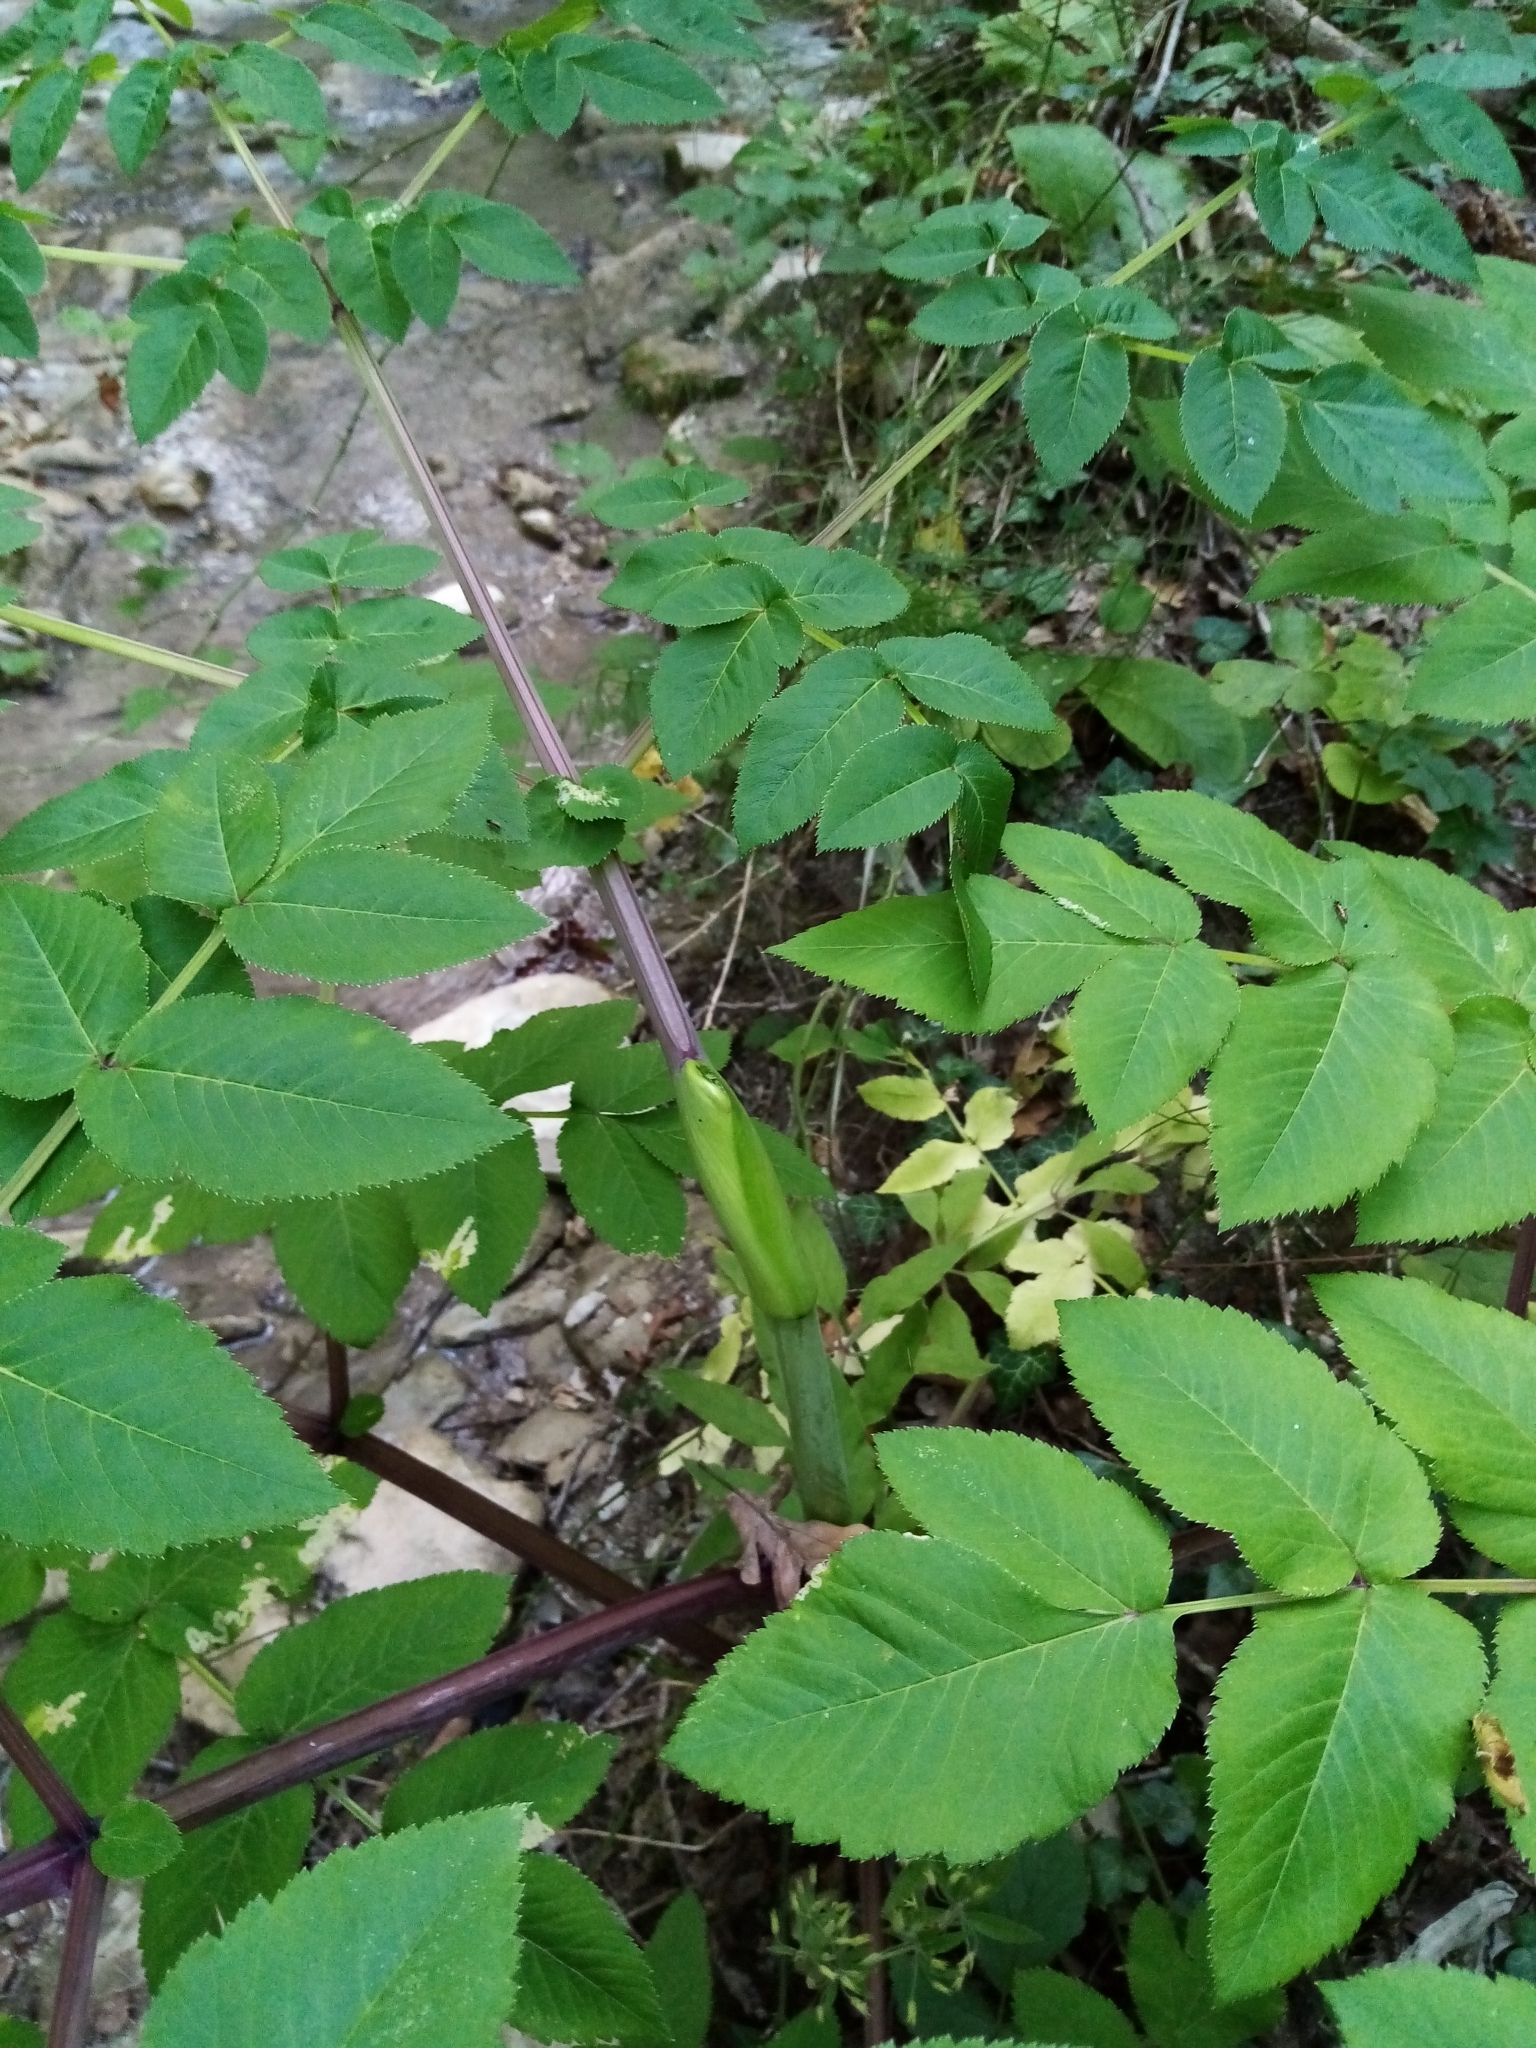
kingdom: Plantae
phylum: Tracheophyta
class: Magnoliopsida
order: Apiales
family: Apiaceae
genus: Angelica
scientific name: Angelica sylvestris
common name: Wild angelica
